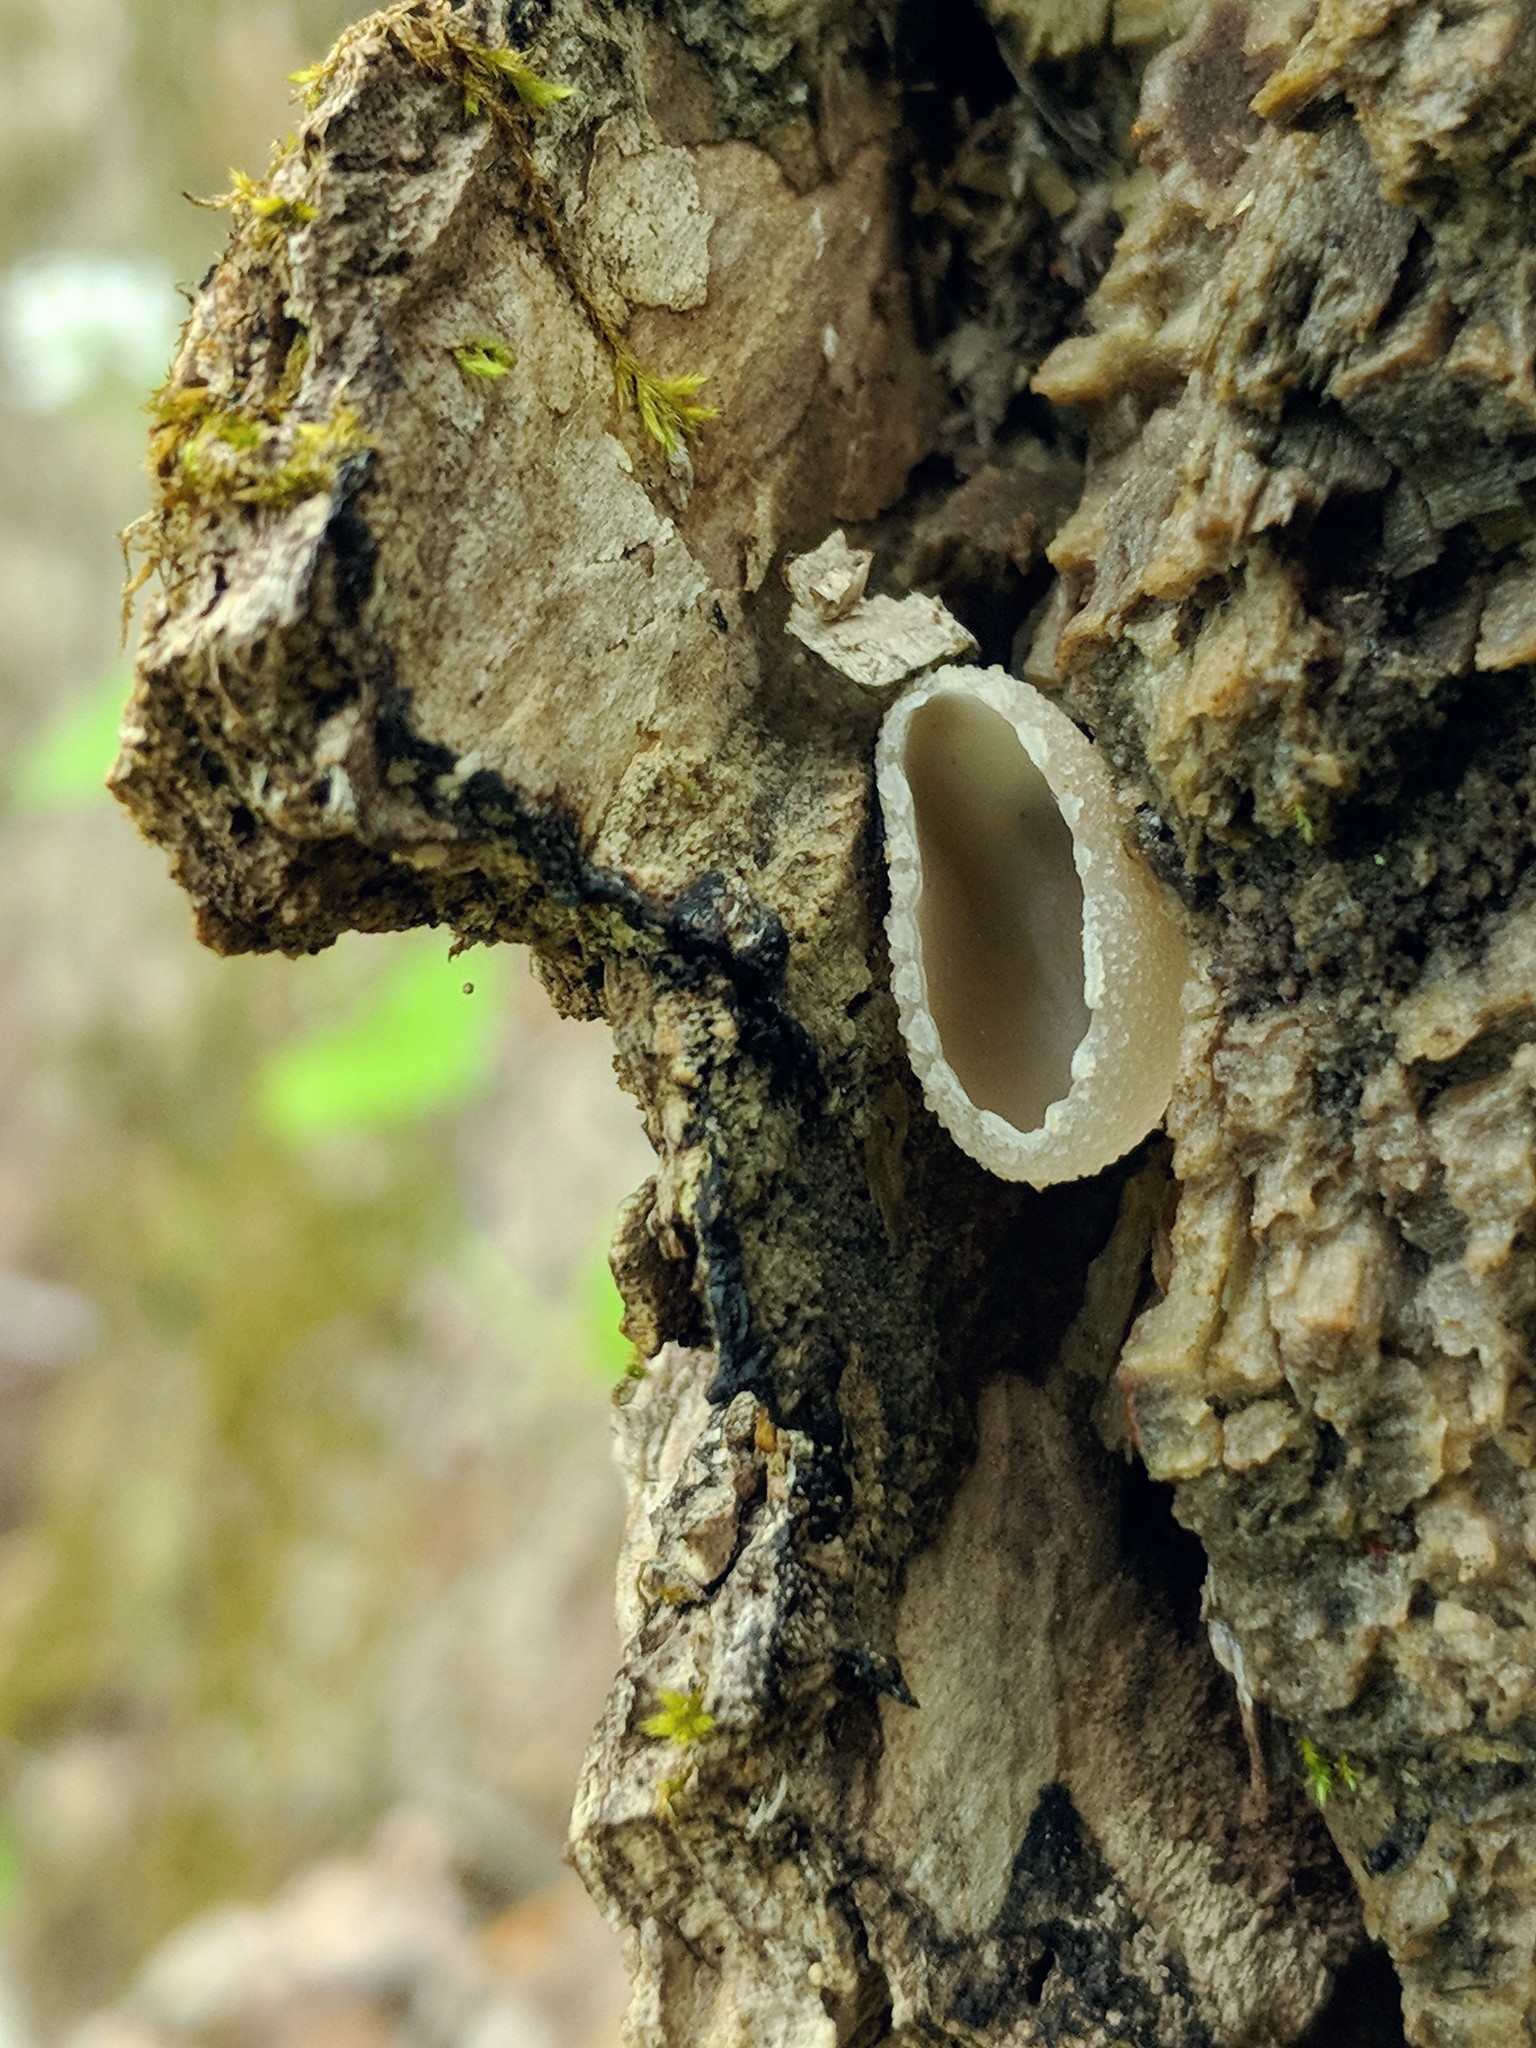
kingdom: Fungi
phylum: Ascomycota
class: Pezizomycetes
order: Pezizales
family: Pezizaceae
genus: Peziza
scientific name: Peziza varia
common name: Layered cup
